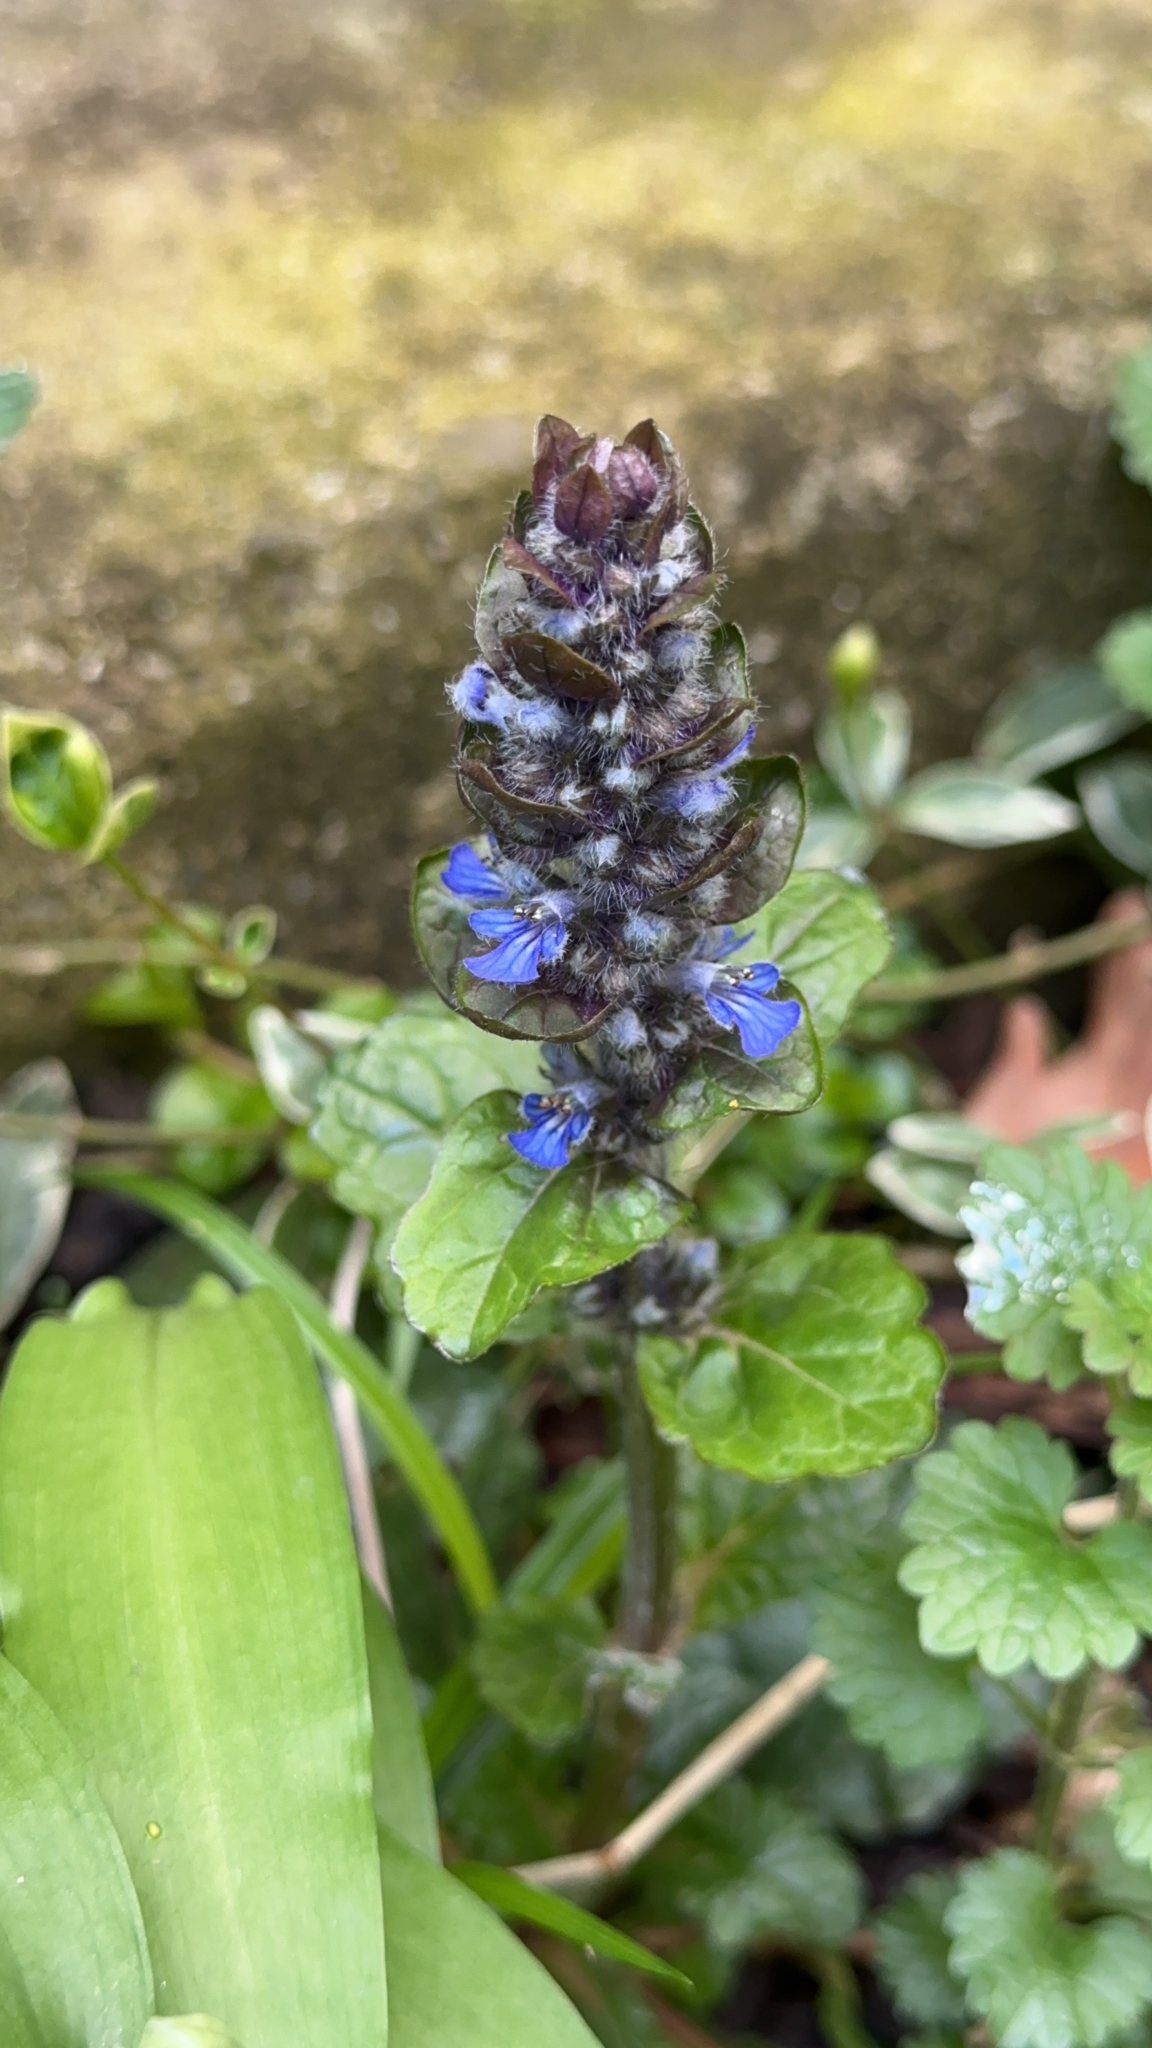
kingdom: Plantae
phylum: Tracheophyta
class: Magnoliopsida
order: Lamiales
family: Lamiaceae
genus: Ajuga
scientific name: Ajuga reptans
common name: Bugle
